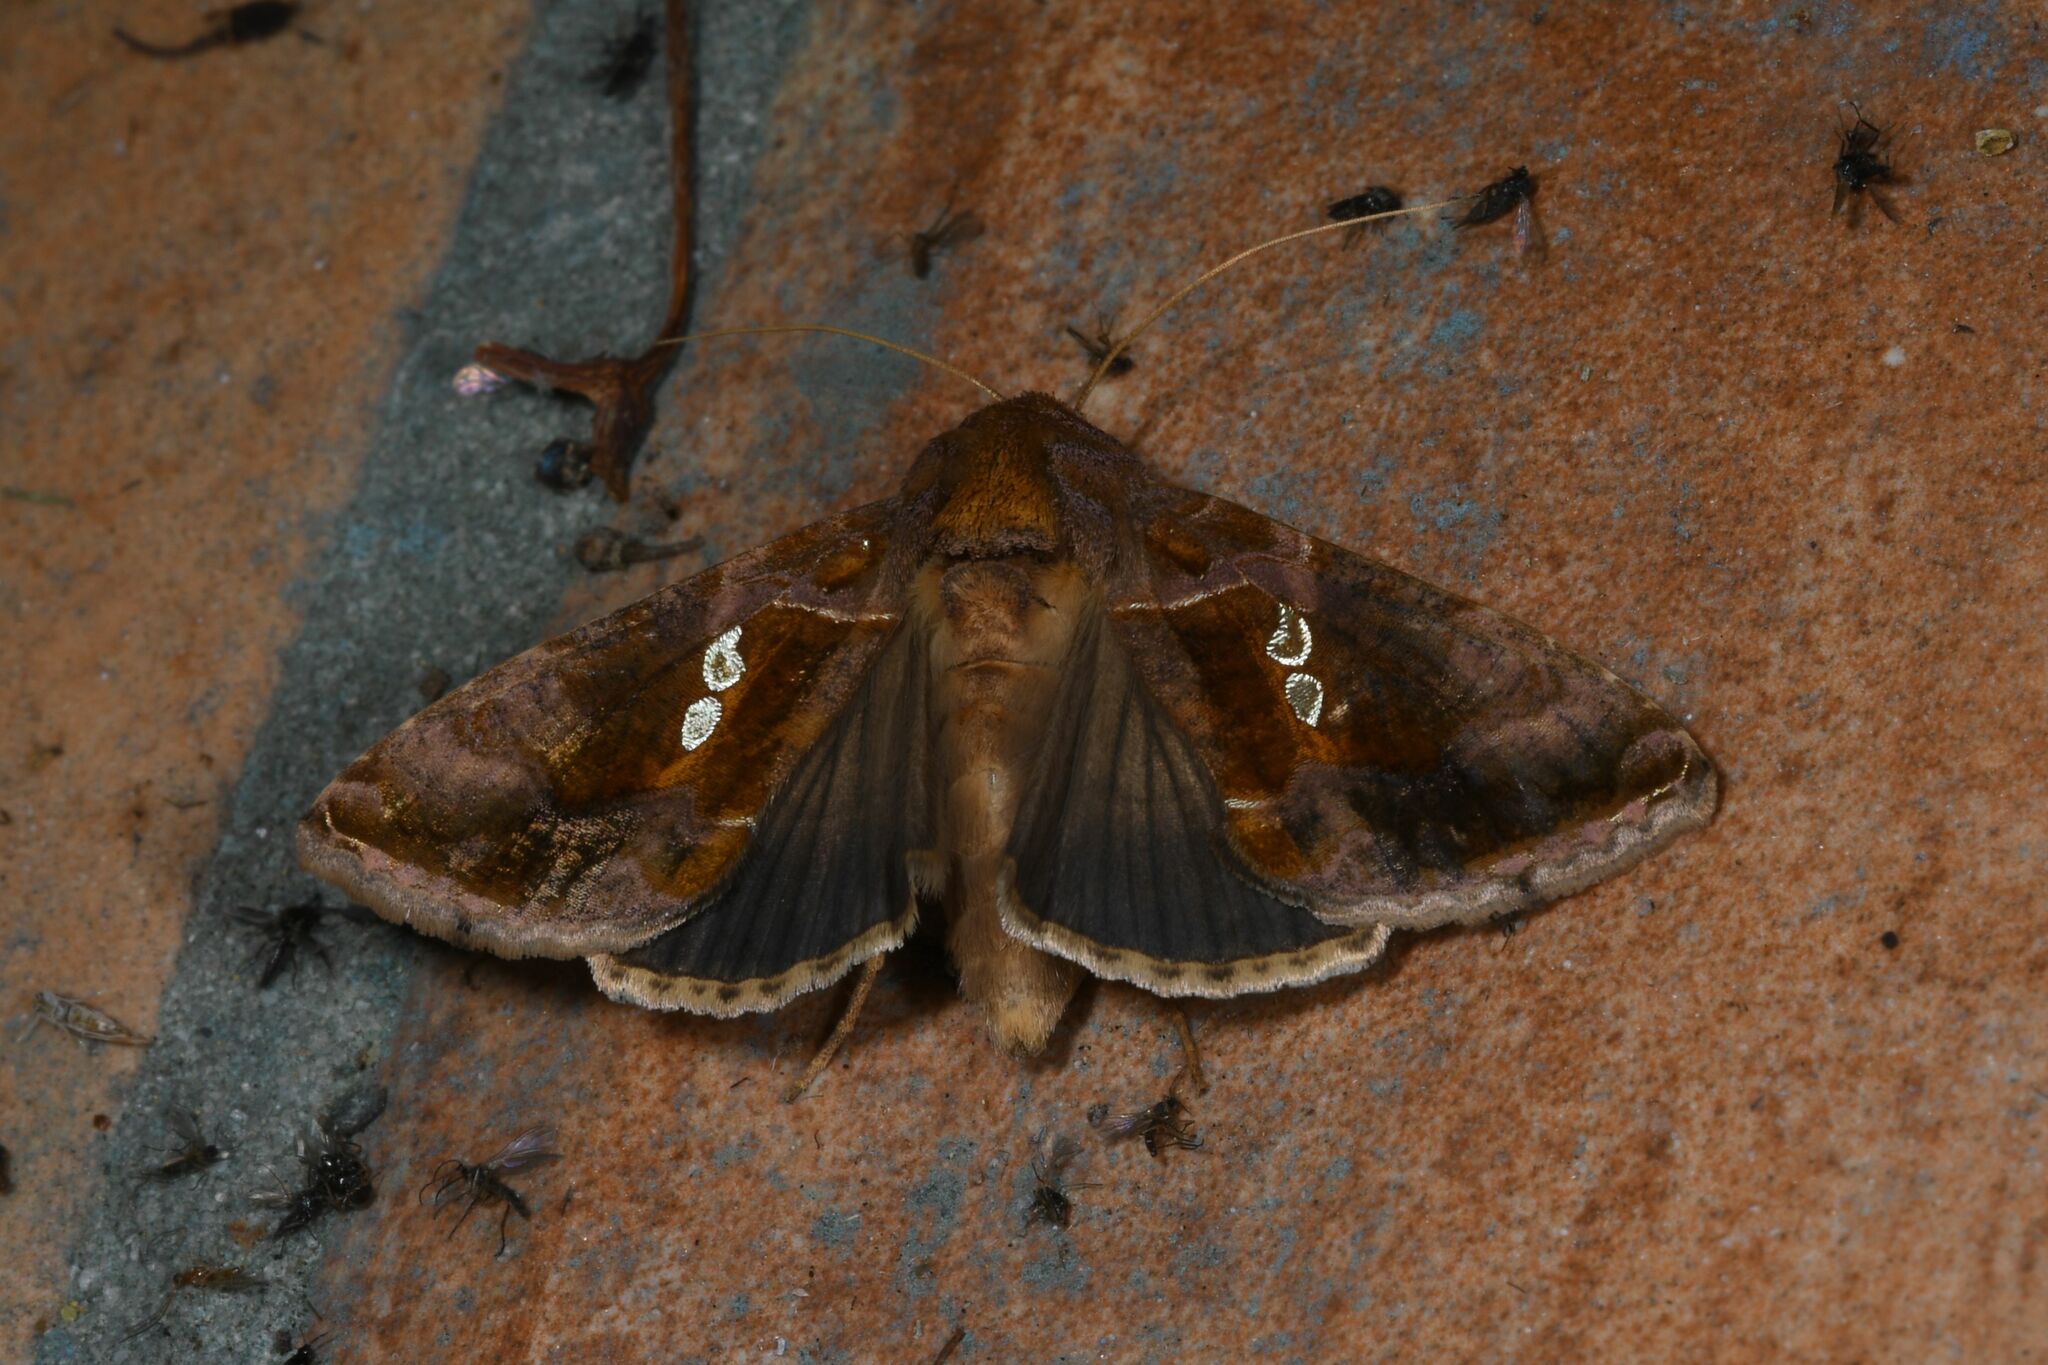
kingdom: Animalia
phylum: Arthropoda
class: Insecta
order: Lepidoptera
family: Noctuidae
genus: Chrysodeixis
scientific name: Chrysodeixis chalcites
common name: Golden twin-spot
